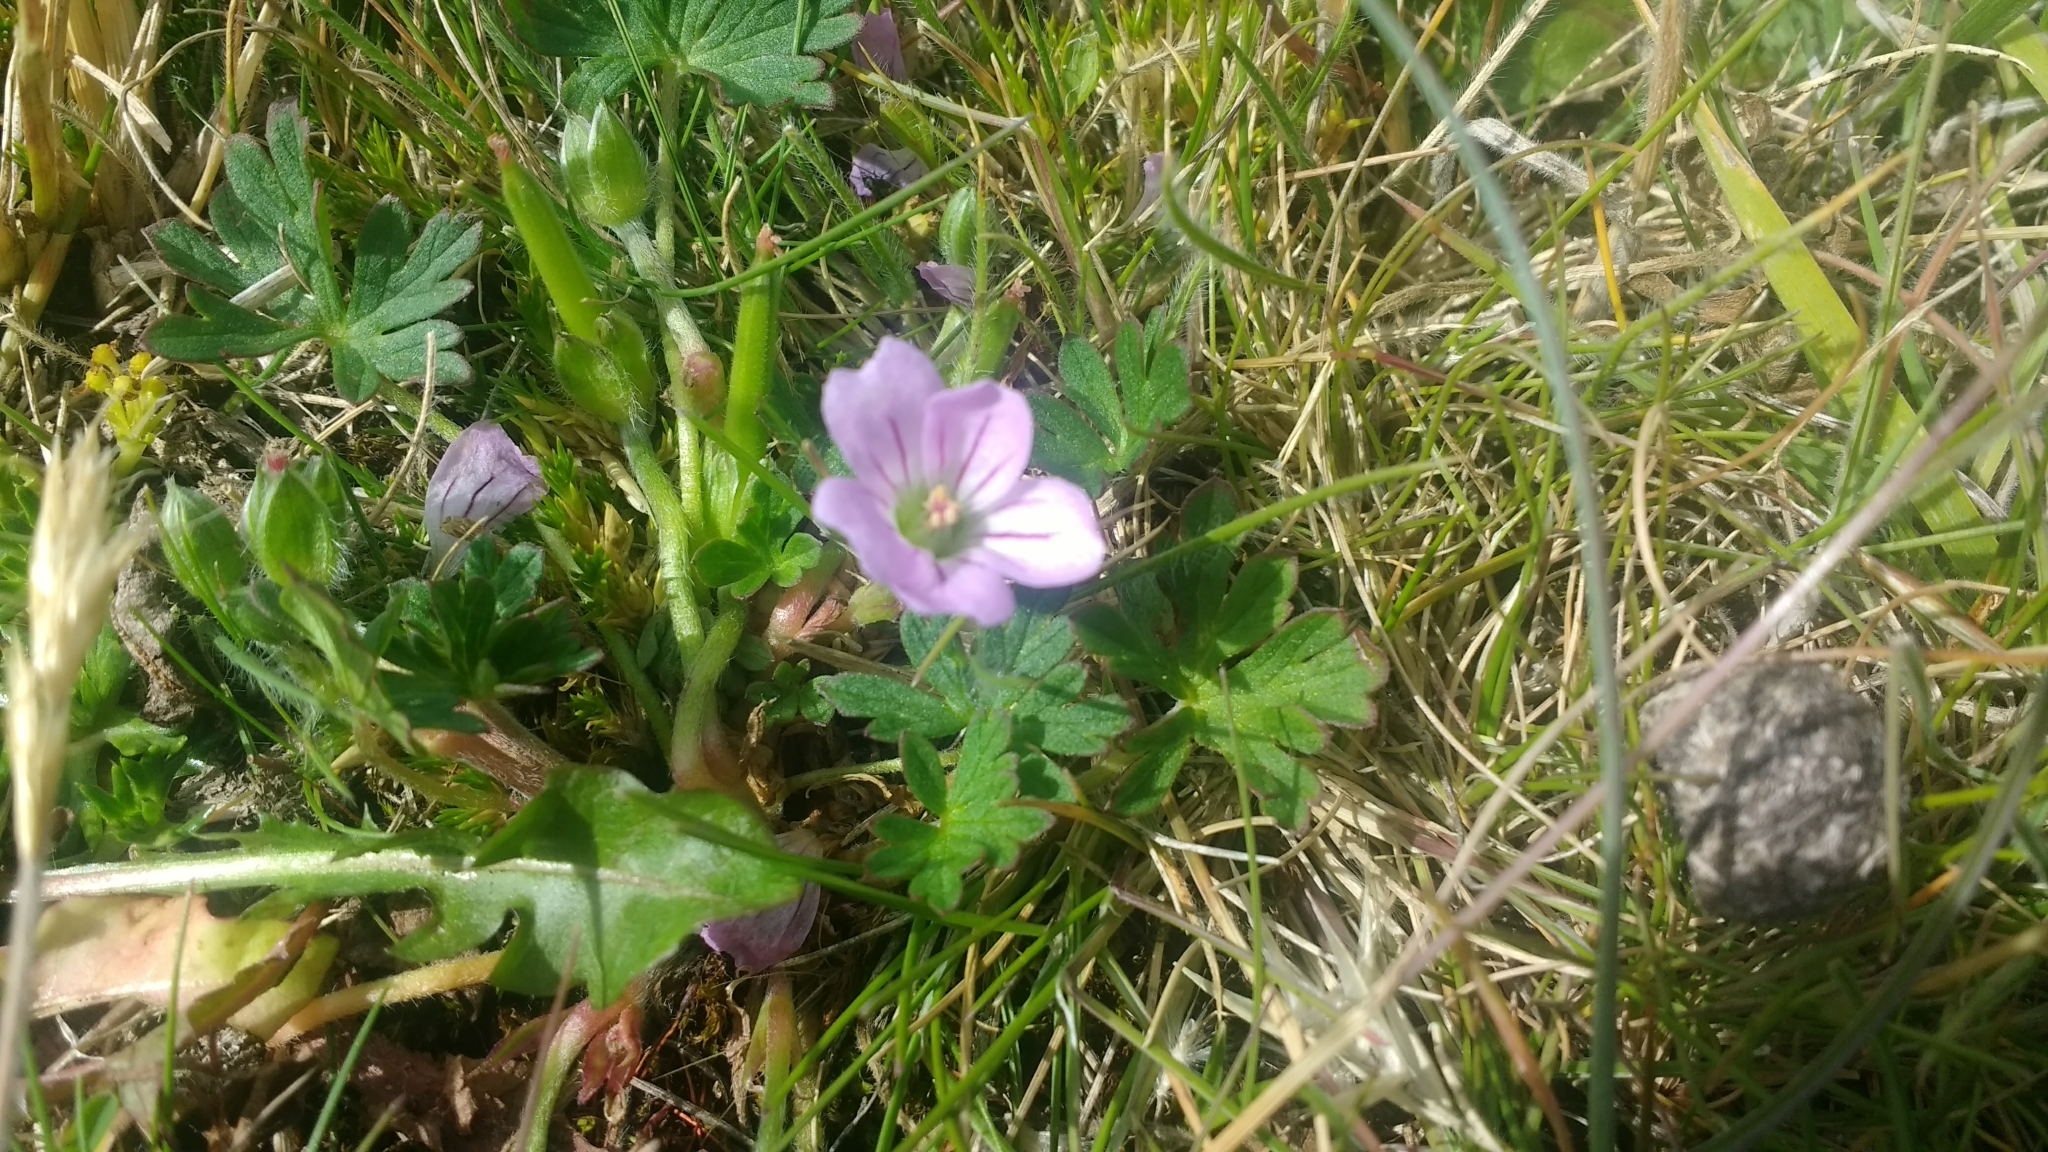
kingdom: Plantae
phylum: Tracheophyta
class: Magnoliopsida
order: Geraniales
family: Geraniaceae
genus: Geranium
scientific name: Geranium magellanicum
